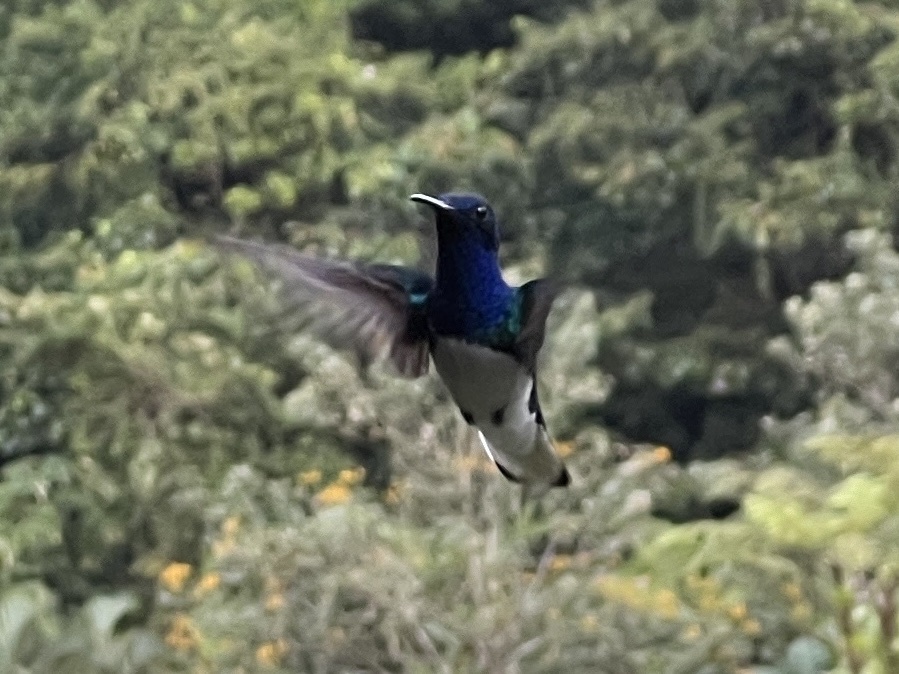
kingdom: Animalia
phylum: Chordata
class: Aves
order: Apodiformes
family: Trochilidae
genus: Florisuga
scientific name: Florisuga mellivora
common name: White-necked jacobin
